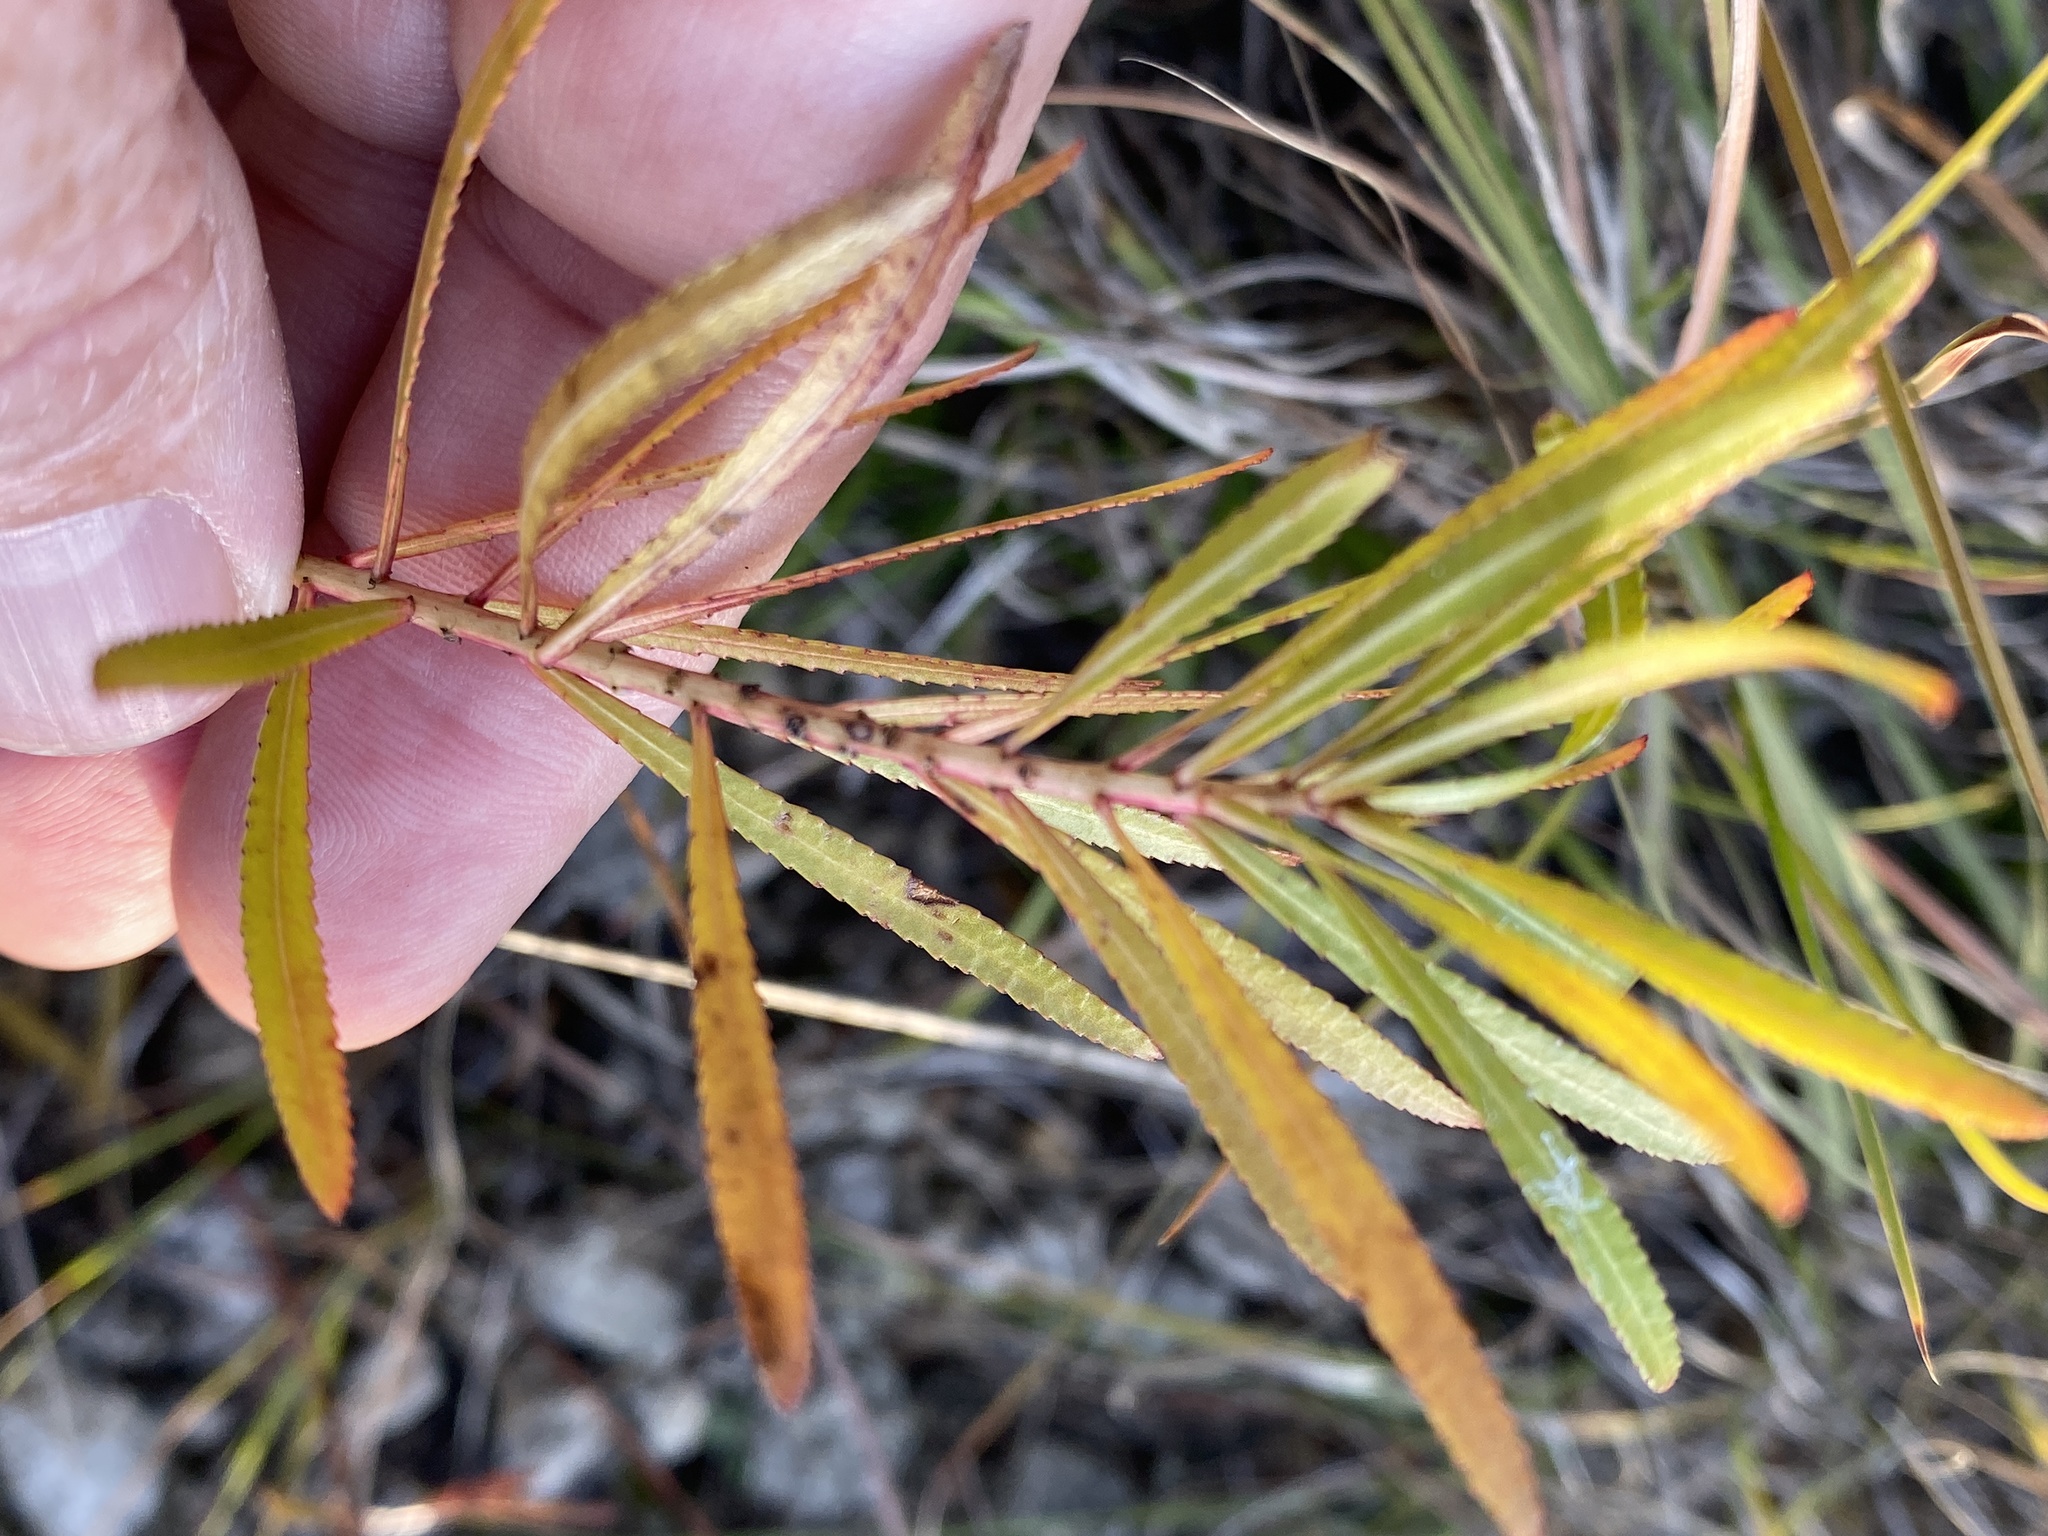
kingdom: Plantae
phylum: Tracheophyta
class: Magnoliopsida
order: Malpighiales
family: Euphorbiaceae
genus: Stillingia
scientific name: Stillingia texana
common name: Texas stillingia
